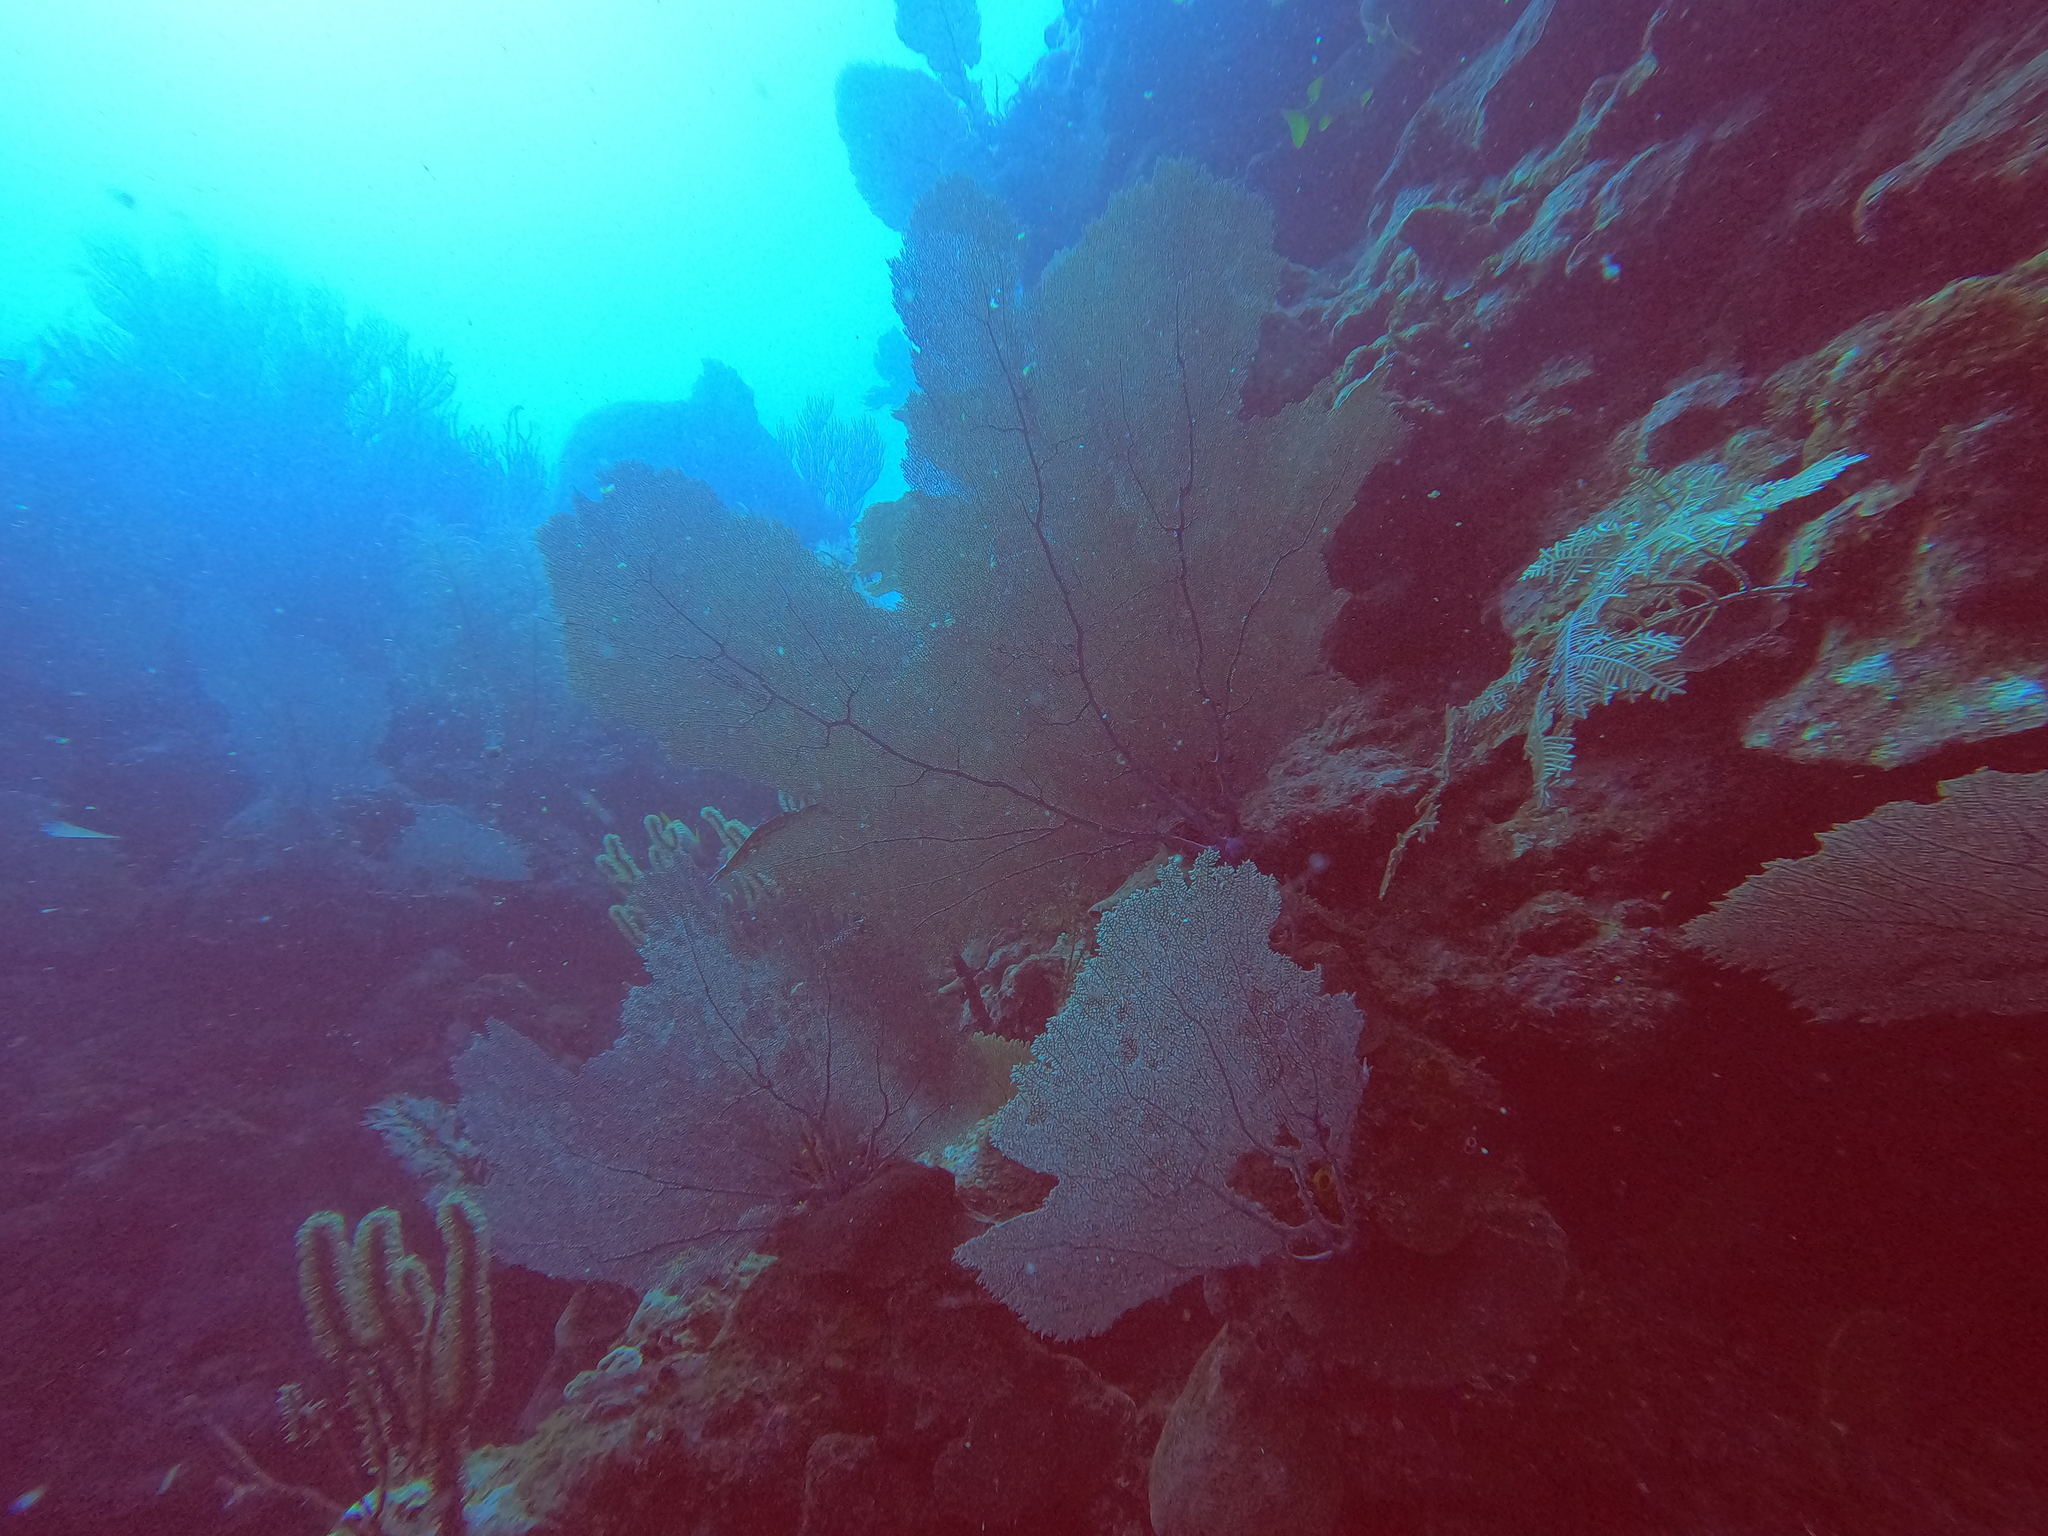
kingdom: Animalia
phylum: Cnidaria
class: Anthozoa
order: Malacalcyonacea
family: Gorgoniidae
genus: Gorgonia
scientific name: Gorgonia ventalina
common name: Common sea fan
